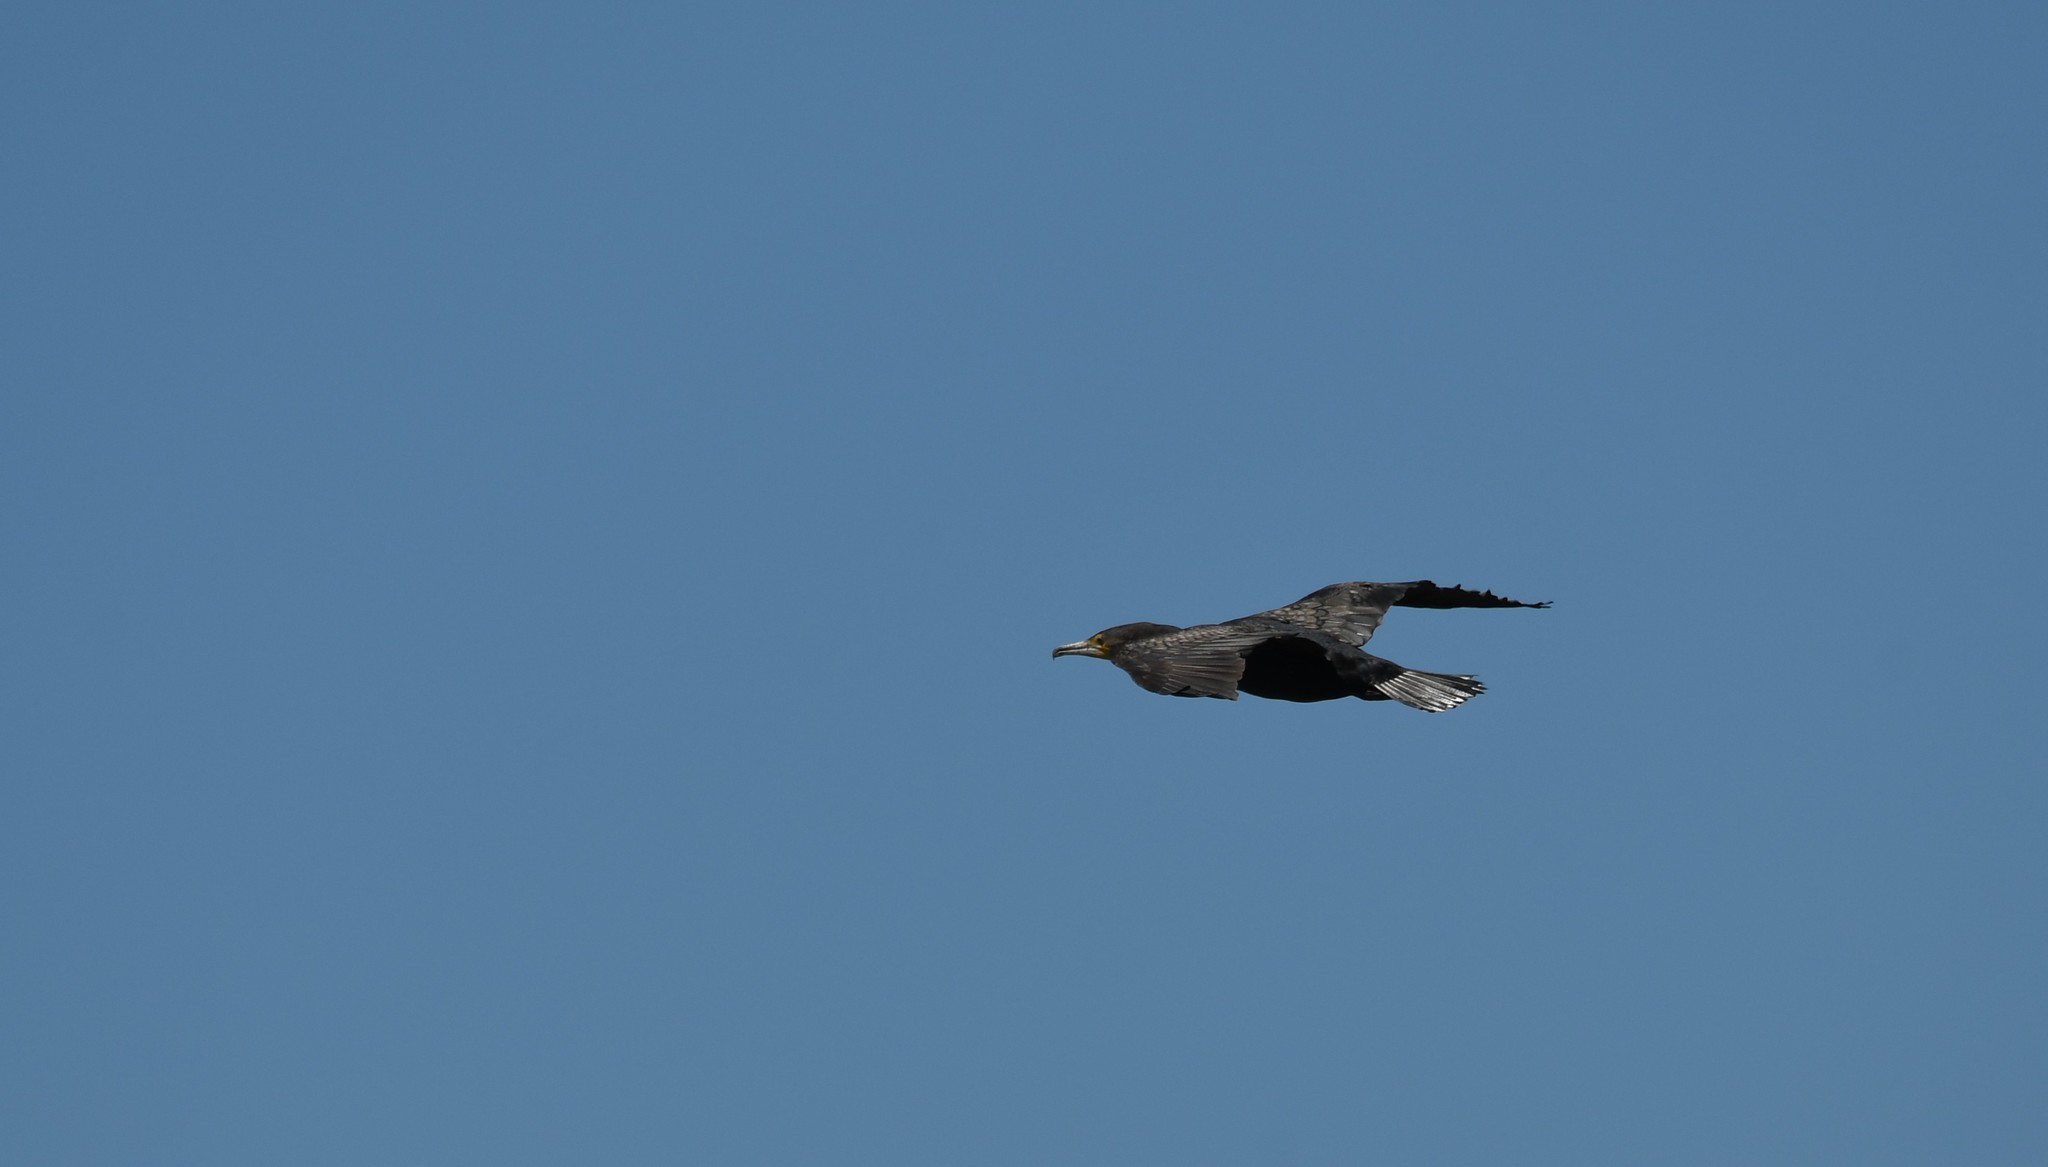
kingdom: Animalia
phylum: Chordata
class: Aves
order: Suliformes
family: Phalacrocoracidae
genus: Phalacrocorax
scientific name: Phalacrocorax carbo
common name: Great cormorant
